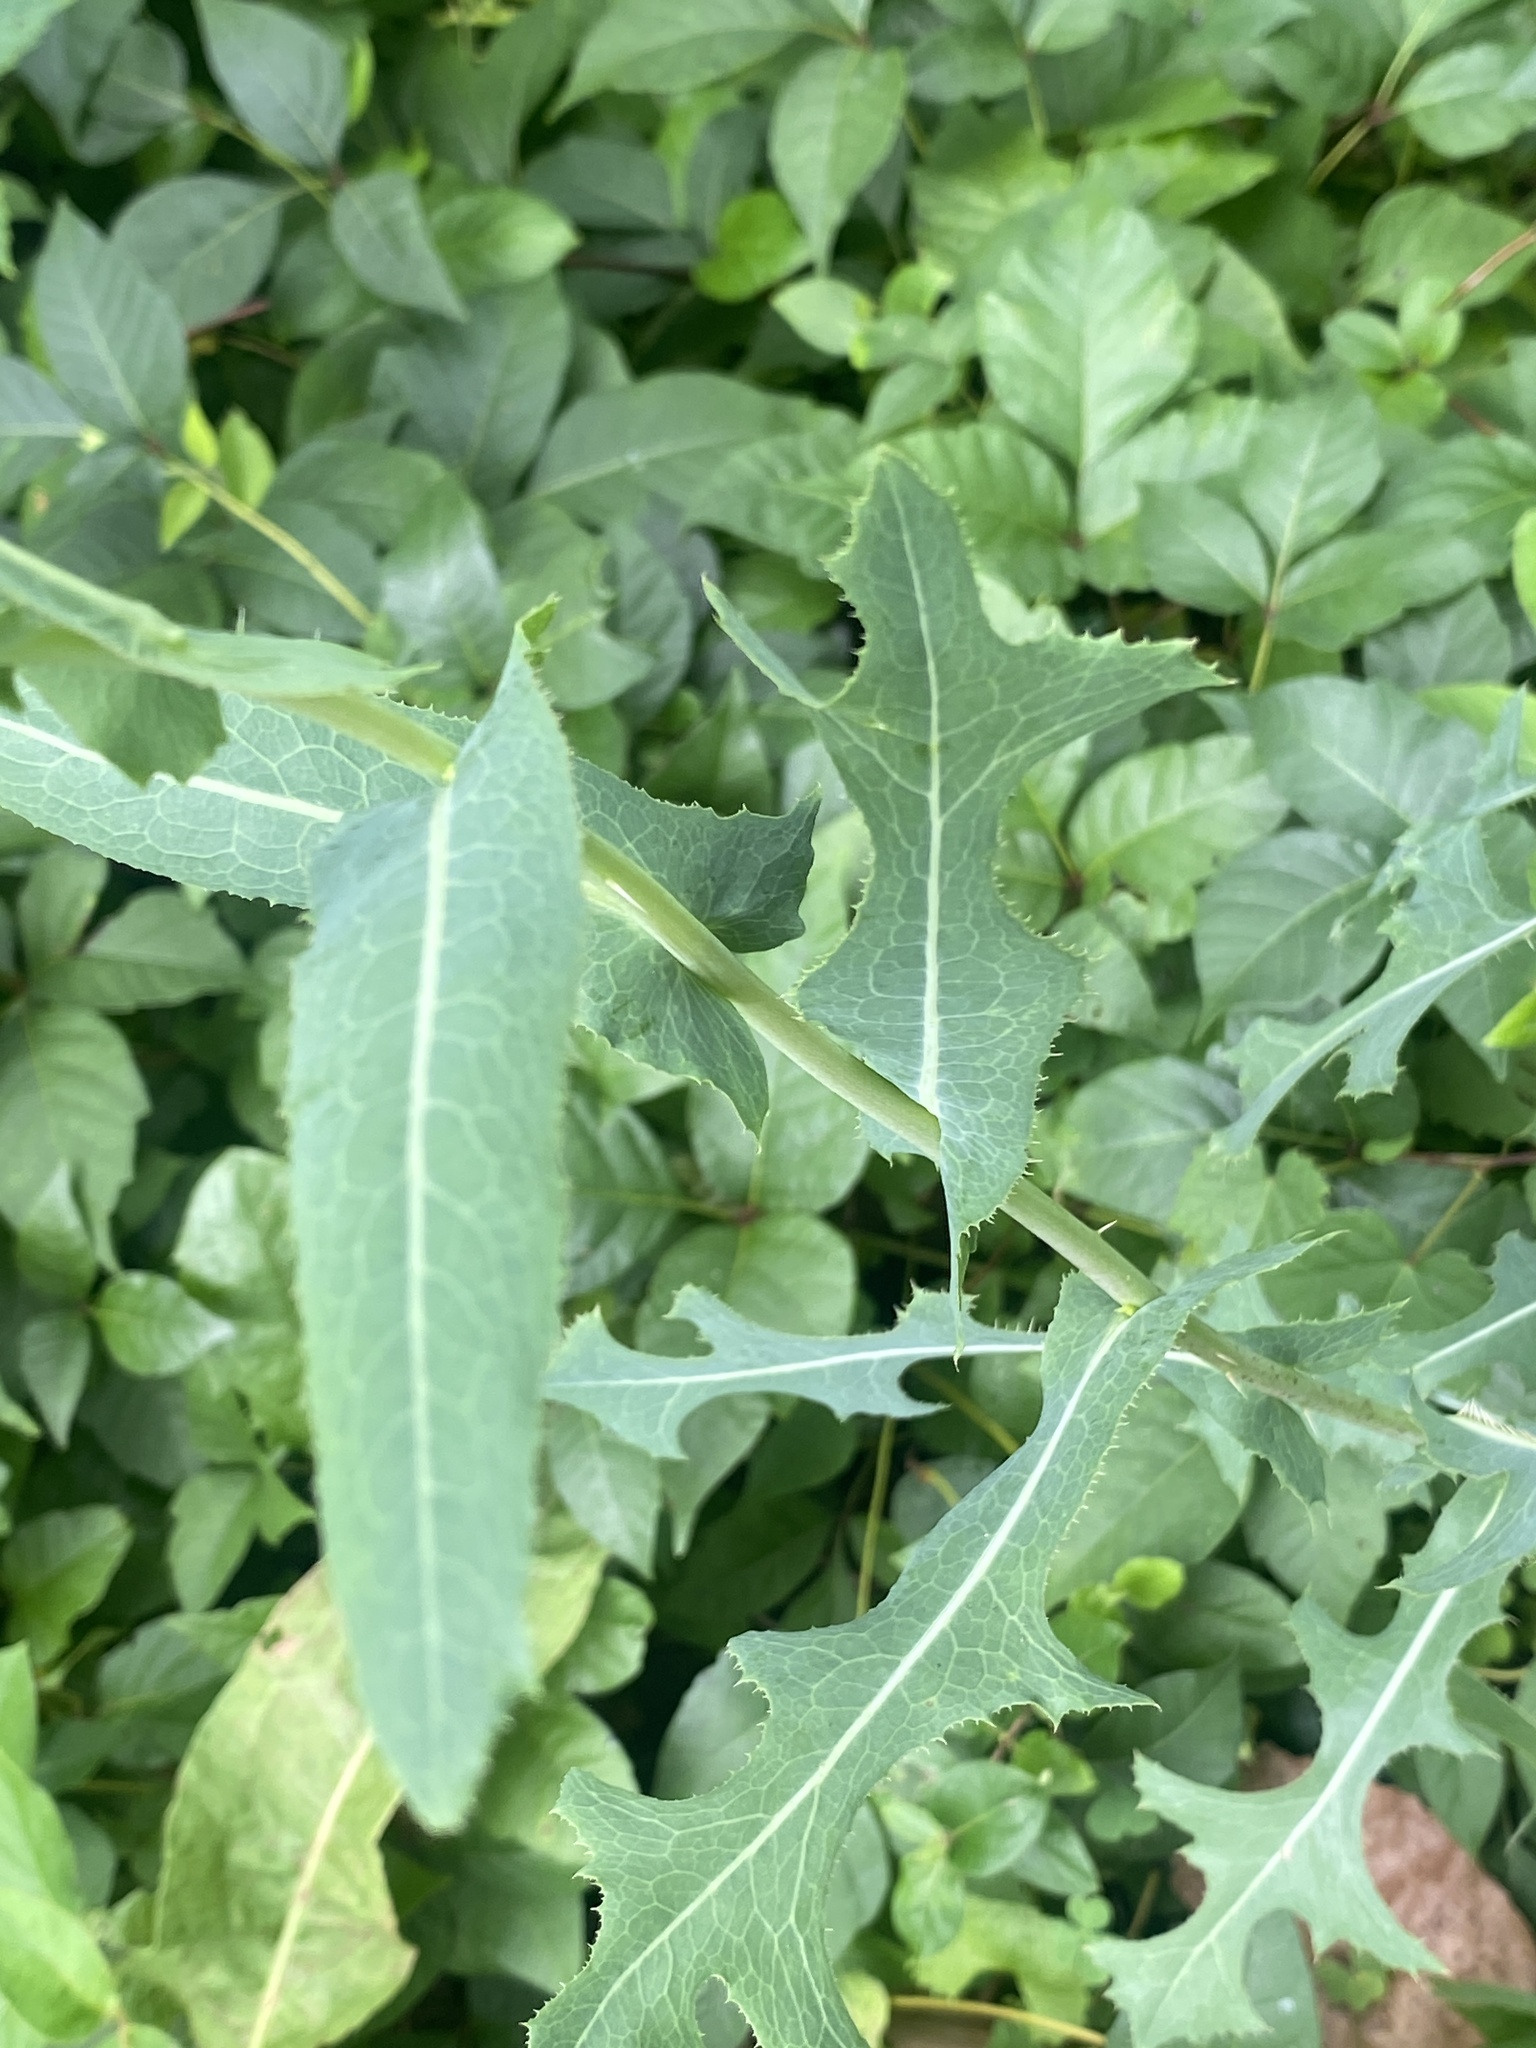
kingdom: Plantae
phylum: Tracheophyta
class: Magnoliopsida
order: Asterales
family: Asteraceae
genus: Lactuca
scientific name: Lactuca serriola
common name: Prickly lettuce
